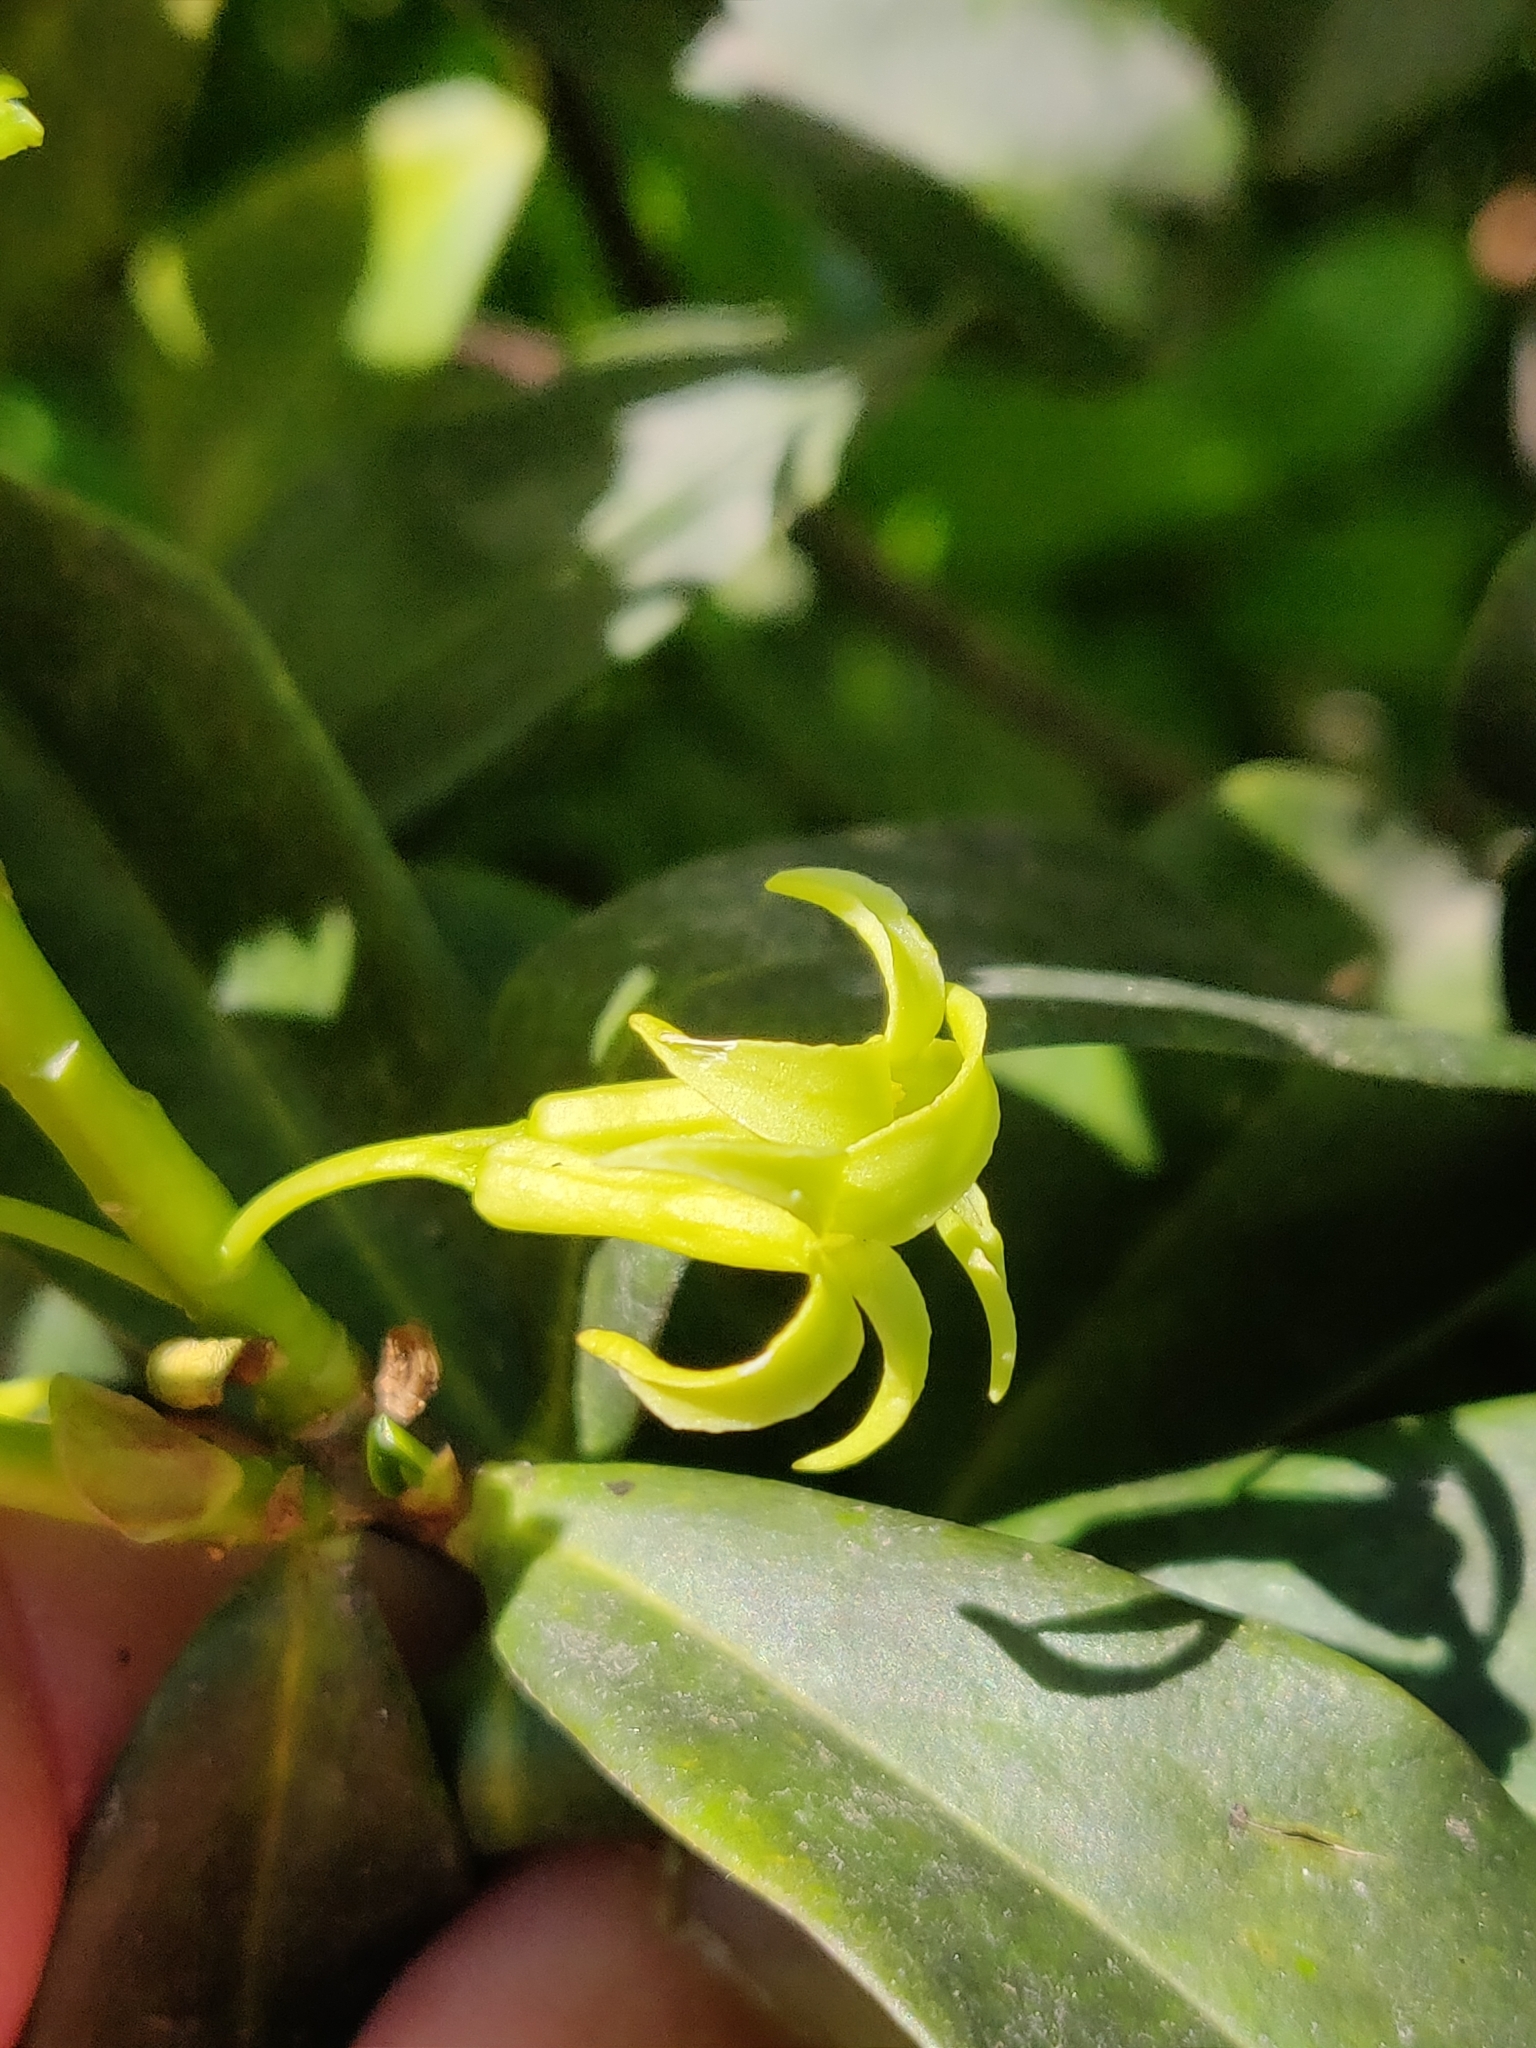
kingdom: Plantae
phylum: Tracheophyta
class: Magnoliopsida
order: Malvales
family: Thymelaeaceae
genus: Daphne
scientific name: Daphne pontica
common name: Twin-flower daphne
